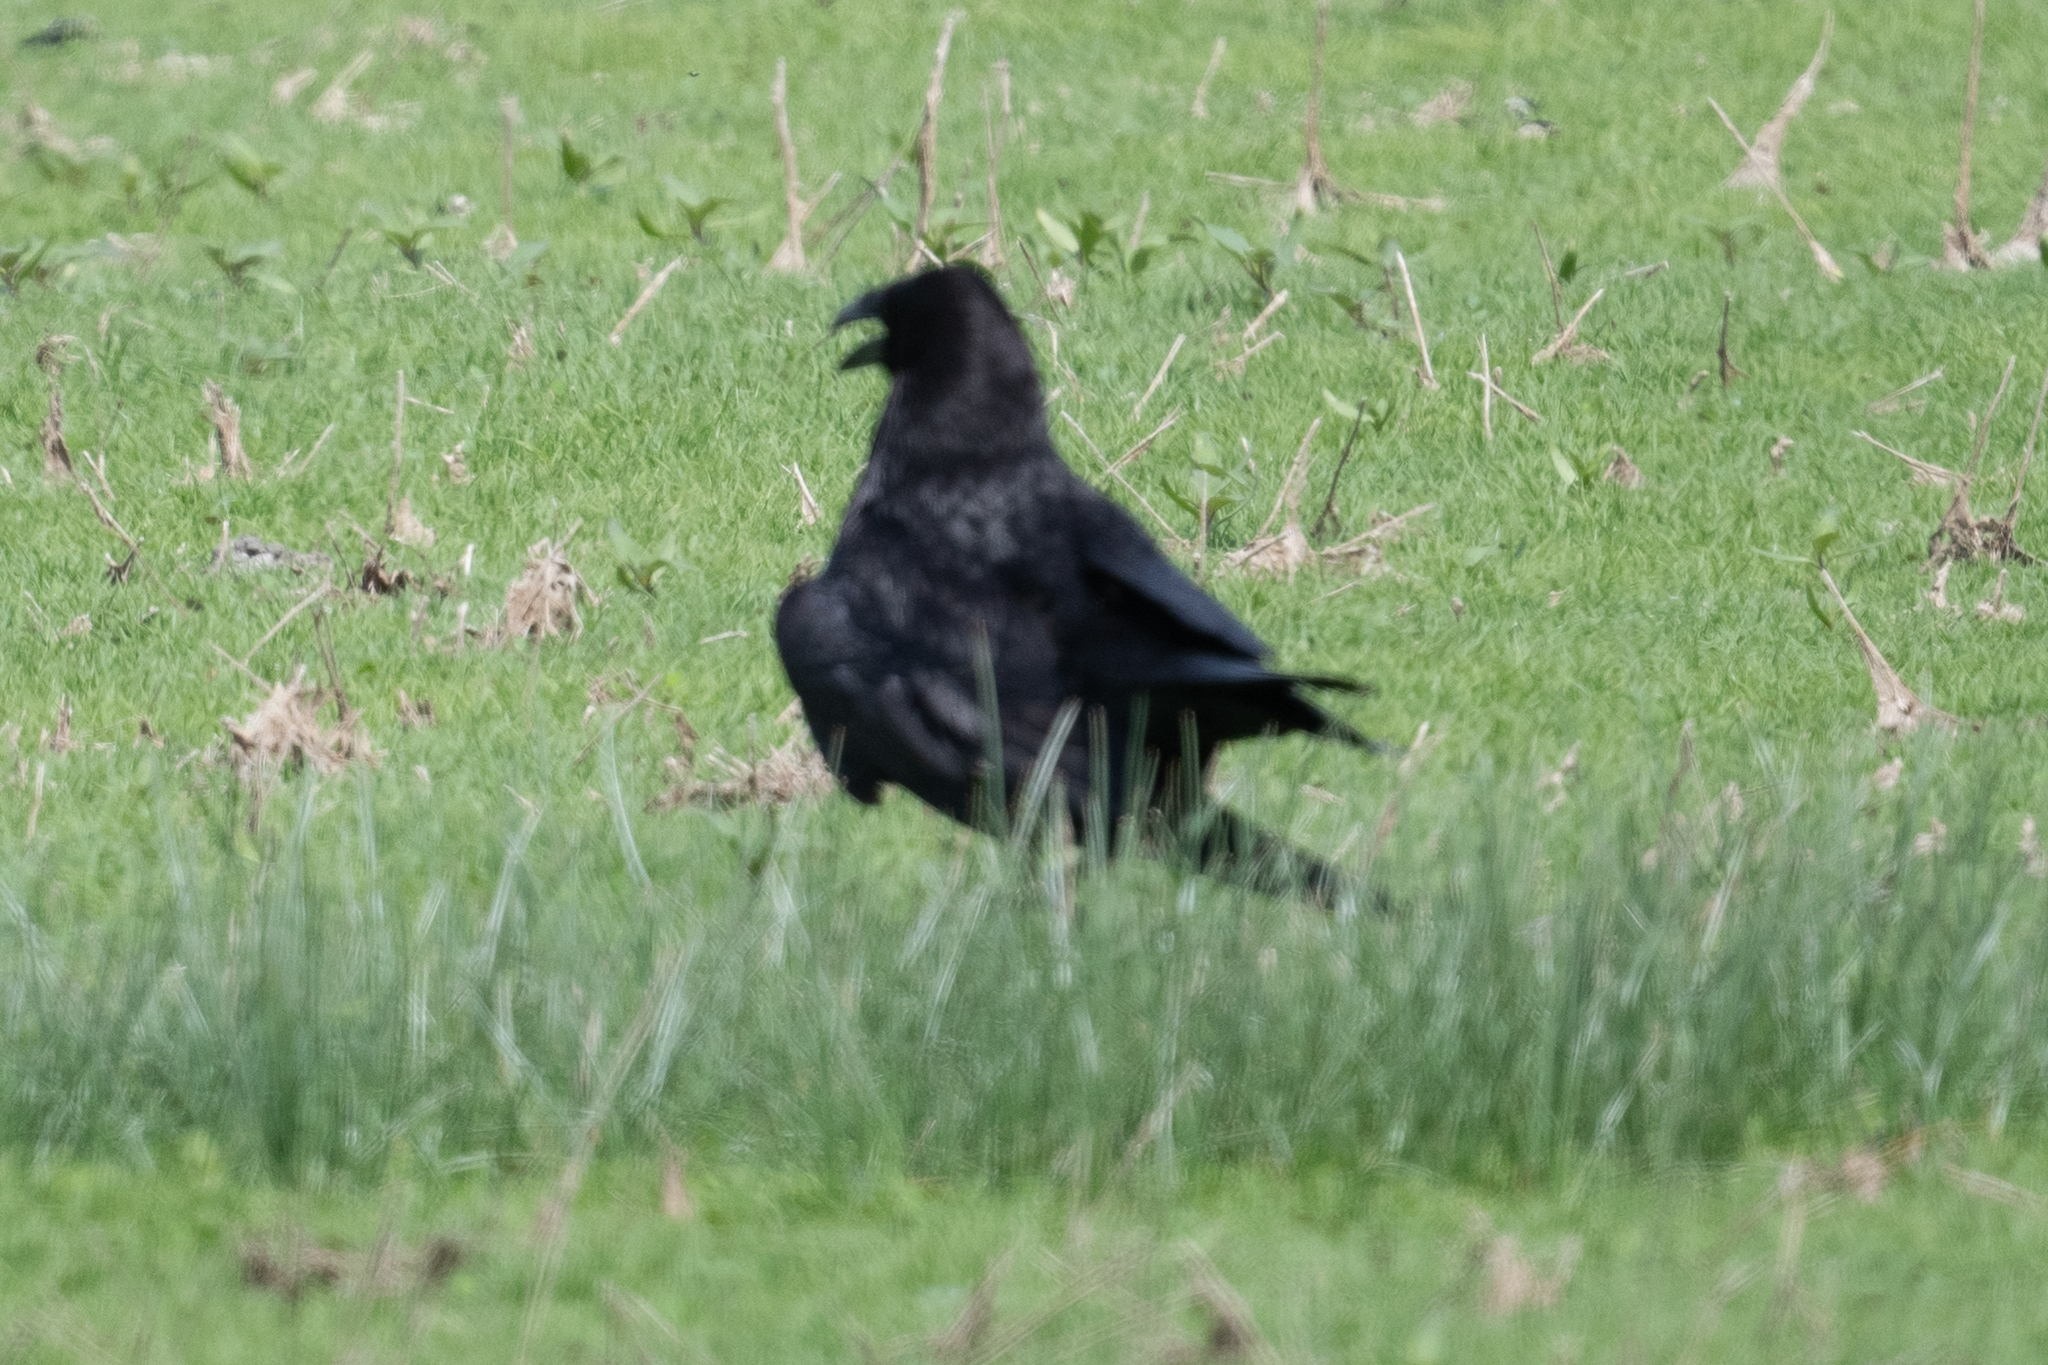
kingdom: Animalia
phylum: Chordata
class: Aves
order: Passeriformes
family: Corvidae
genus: Corvus
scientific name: Corvus corax
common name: Common raven
